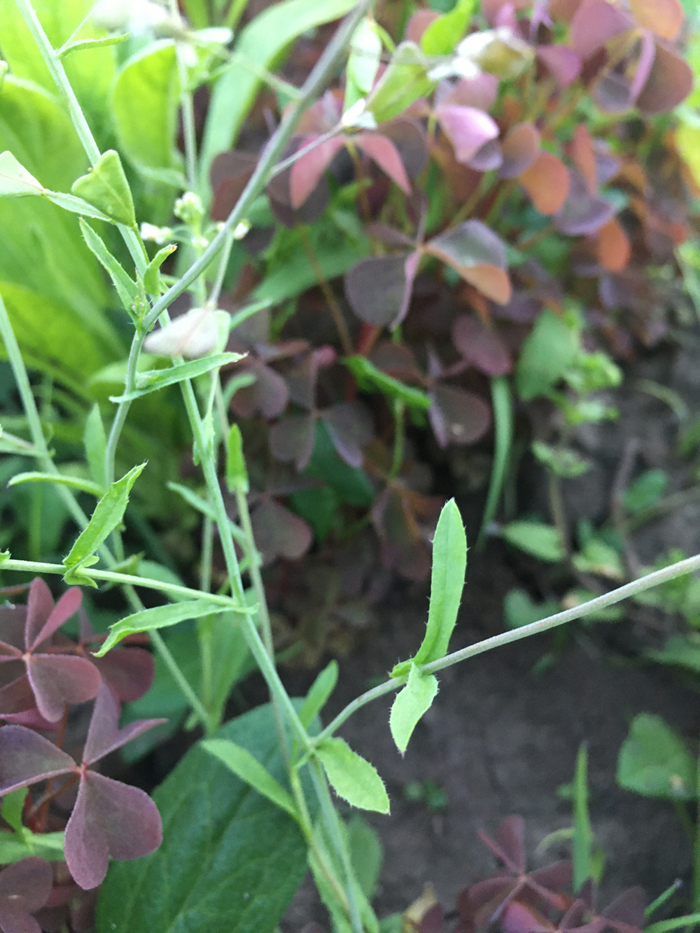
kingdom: Plantae
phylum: Tracheophyta
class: Magnoliopsida
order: Brassicales
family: Brassicaceae
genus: Capsella
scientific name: Capsella bursa-pastoris
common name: Shepherd's purse
